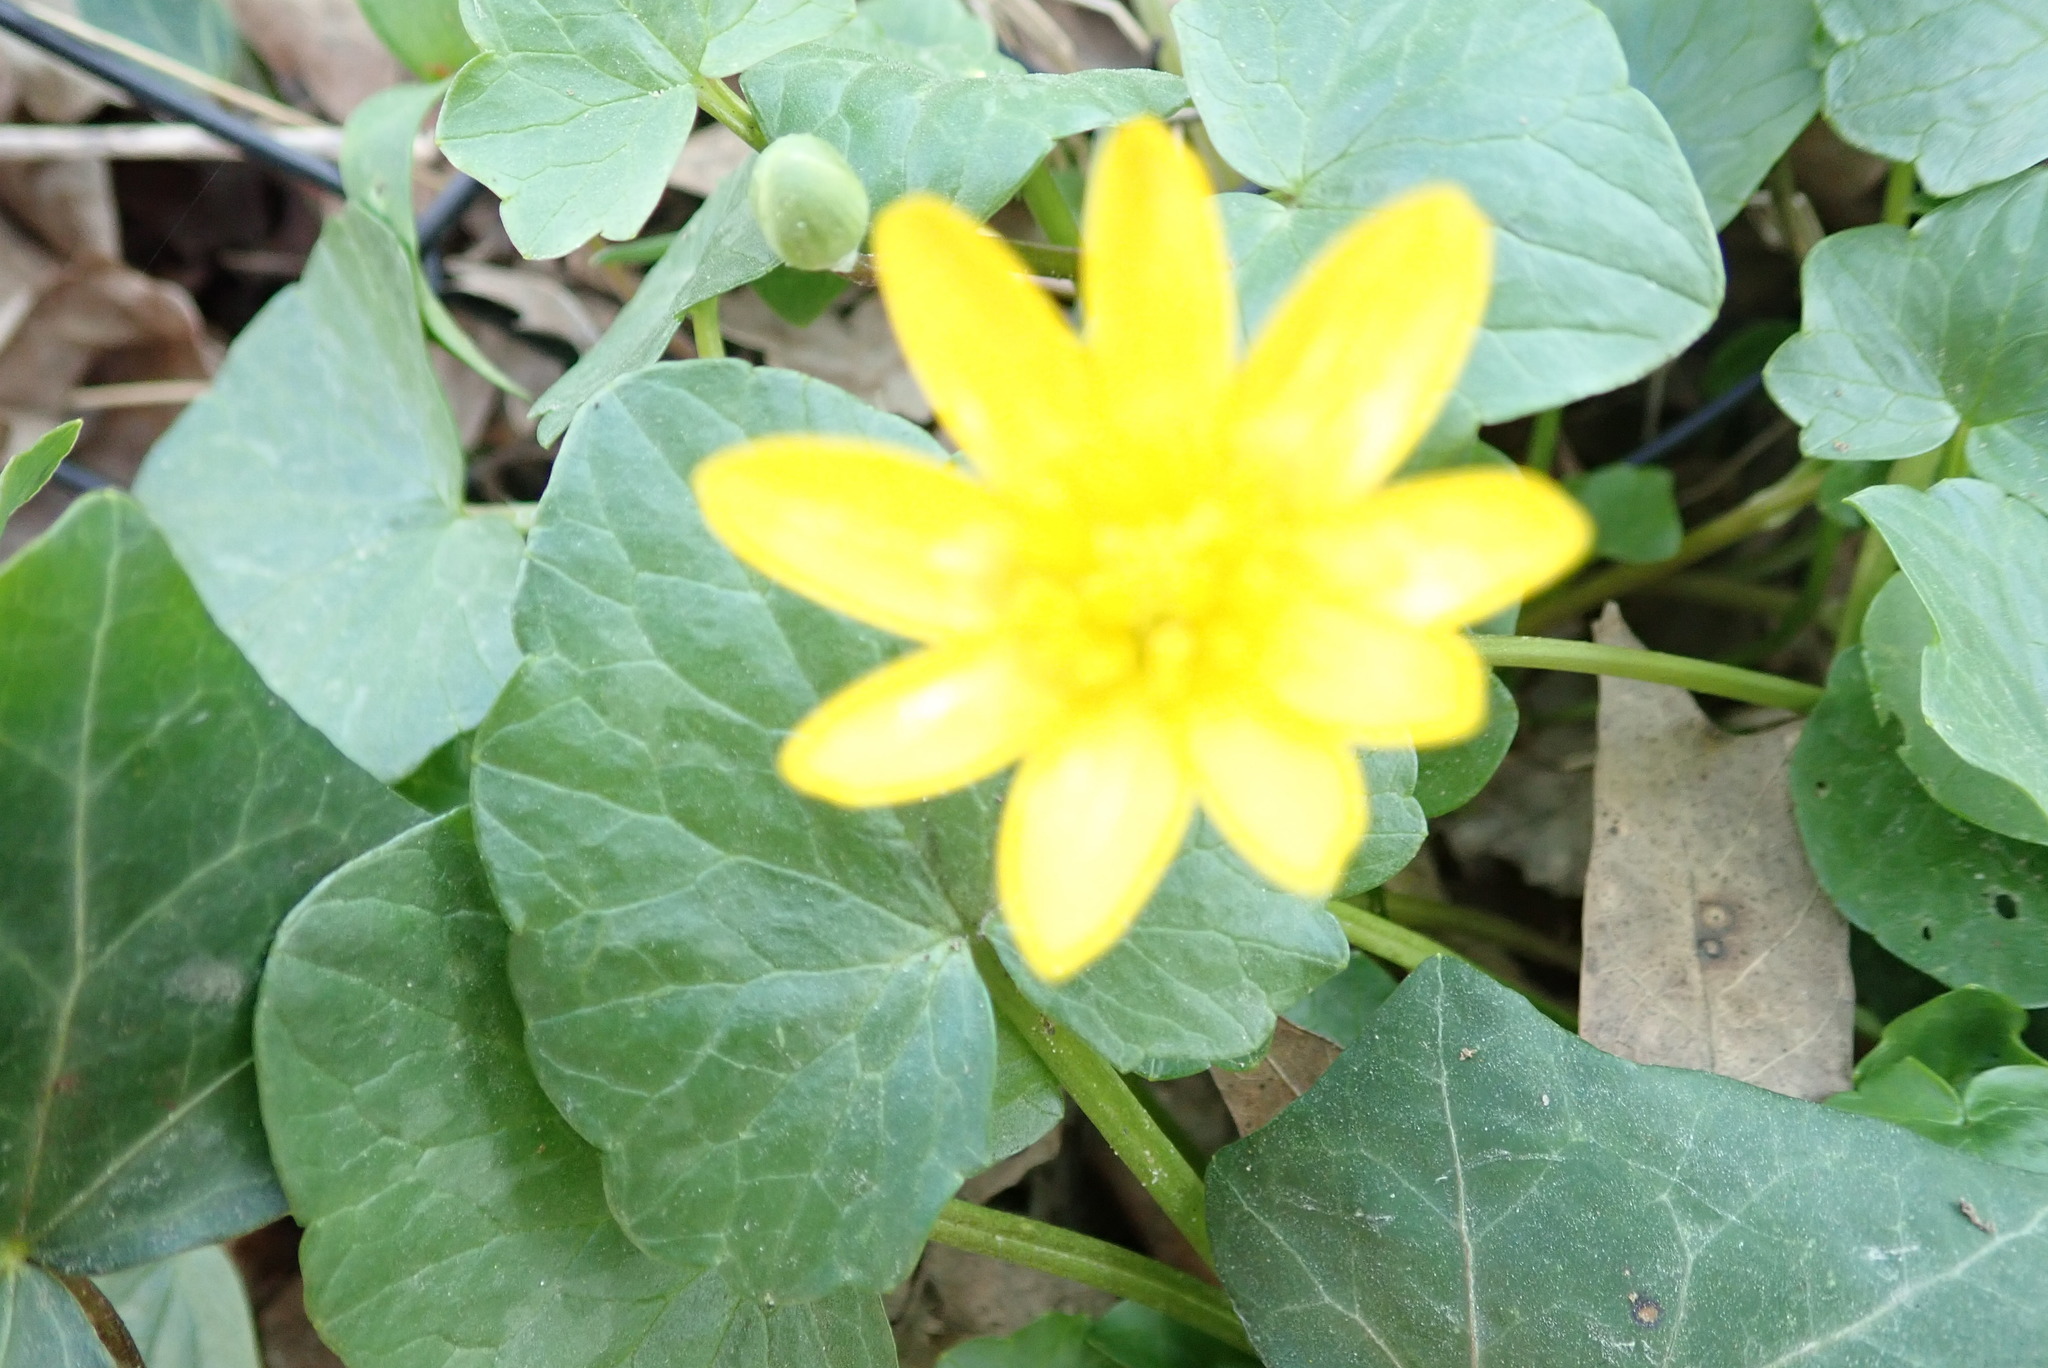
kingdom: Plantae
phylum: Tracheophyta
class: Magnoliopsida
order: Ranunculales
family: Ranunculaceae
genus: Ficaria
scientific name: Ficaria verna
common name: Lesser celandine
